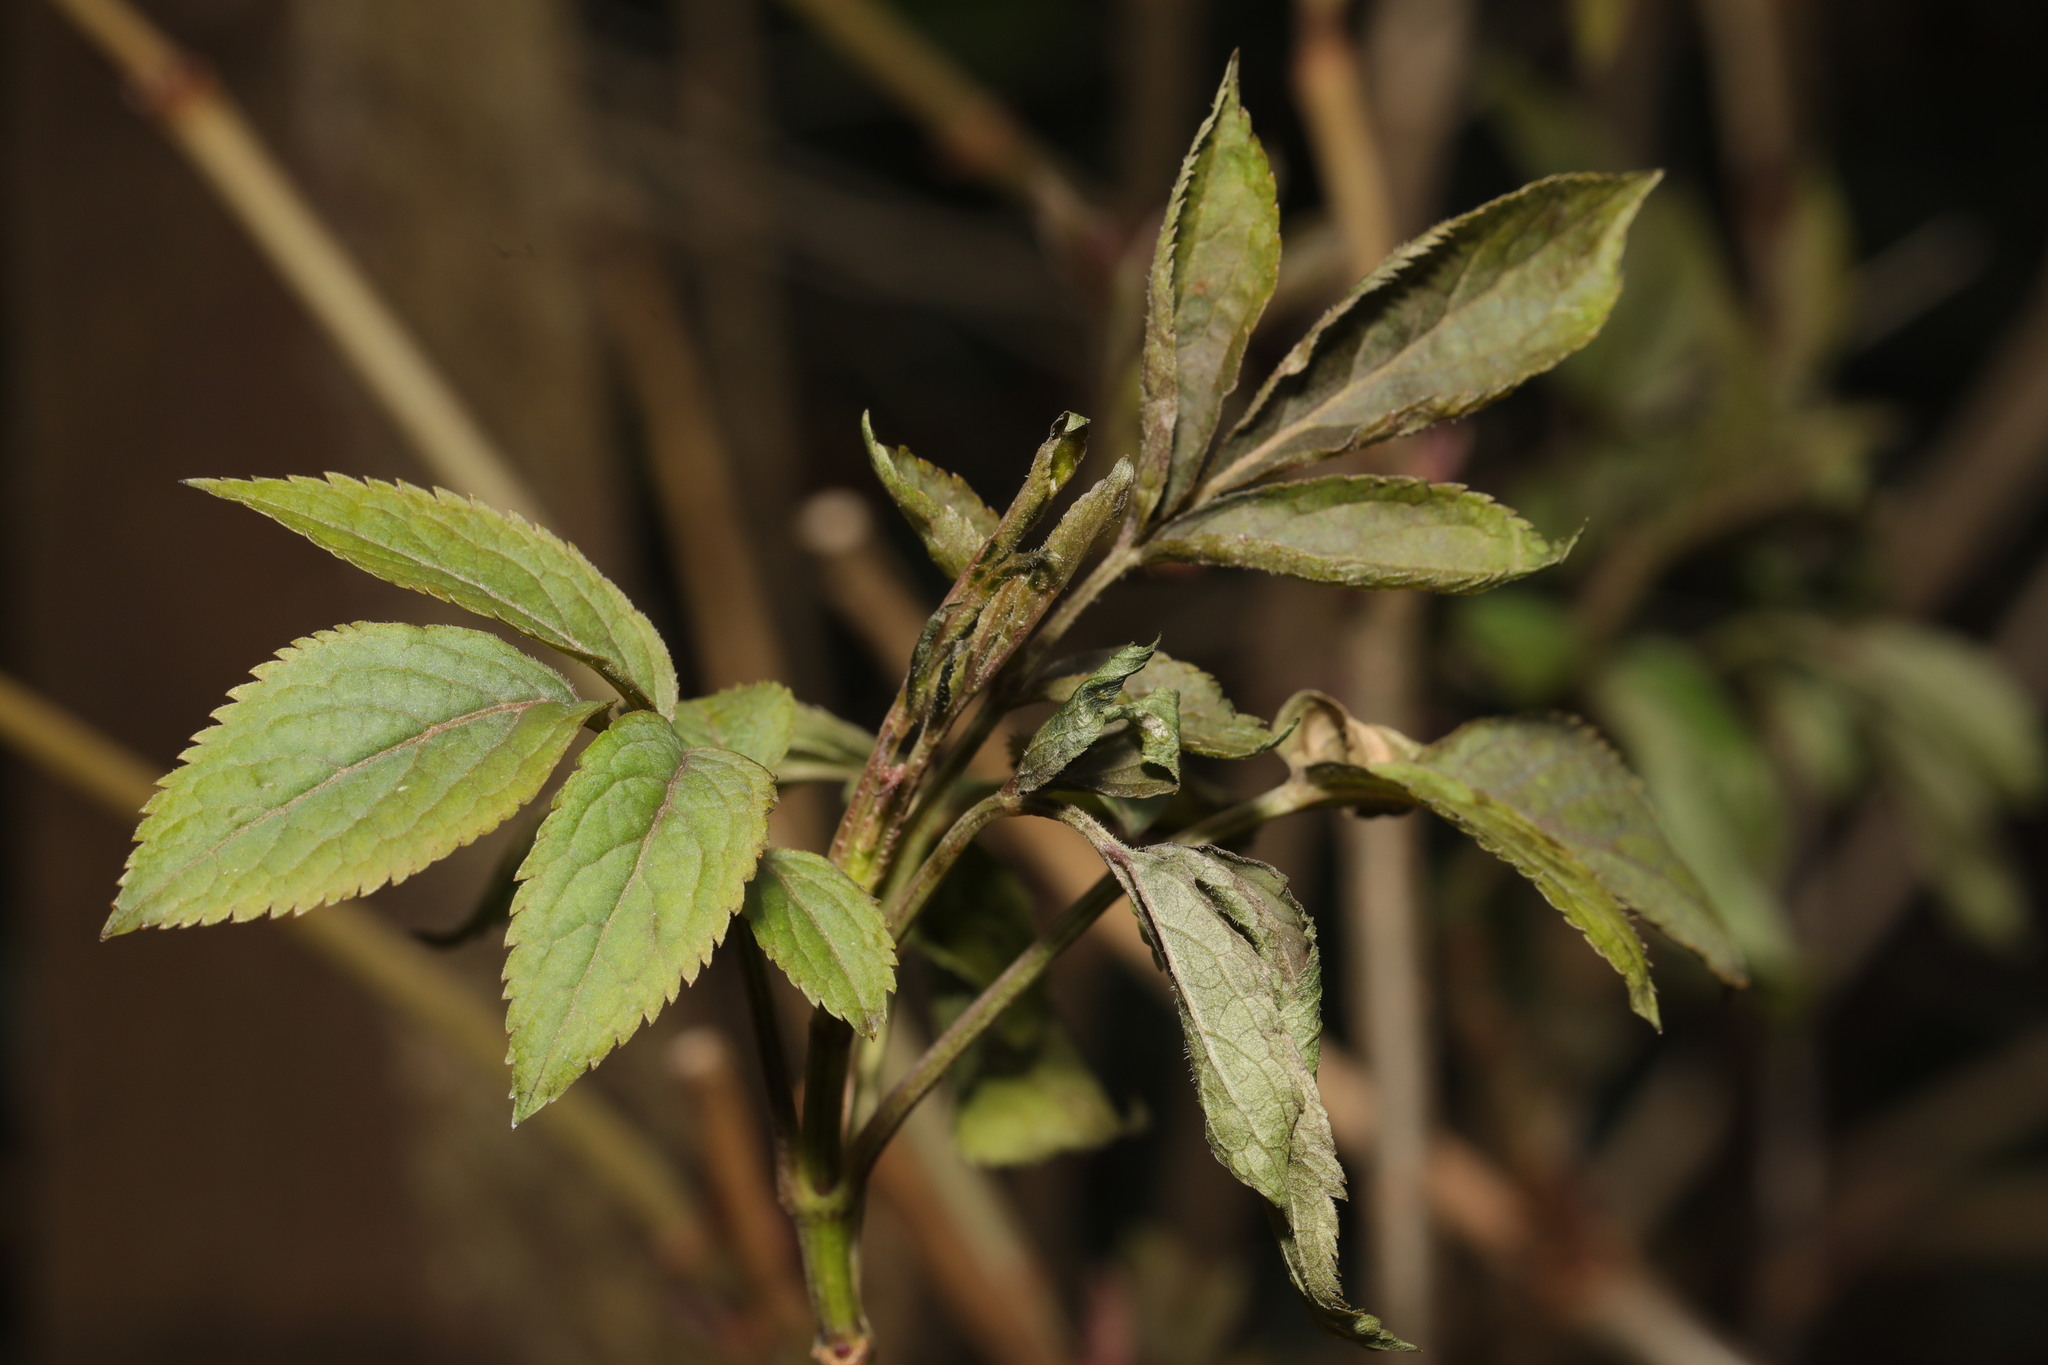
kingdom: Plantae
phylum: Tracheophyta
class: Magnoliopsida
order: Dipsacales
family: Viburnaceae
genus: Sambucus
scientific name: Sambucus nigra
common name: Elder
